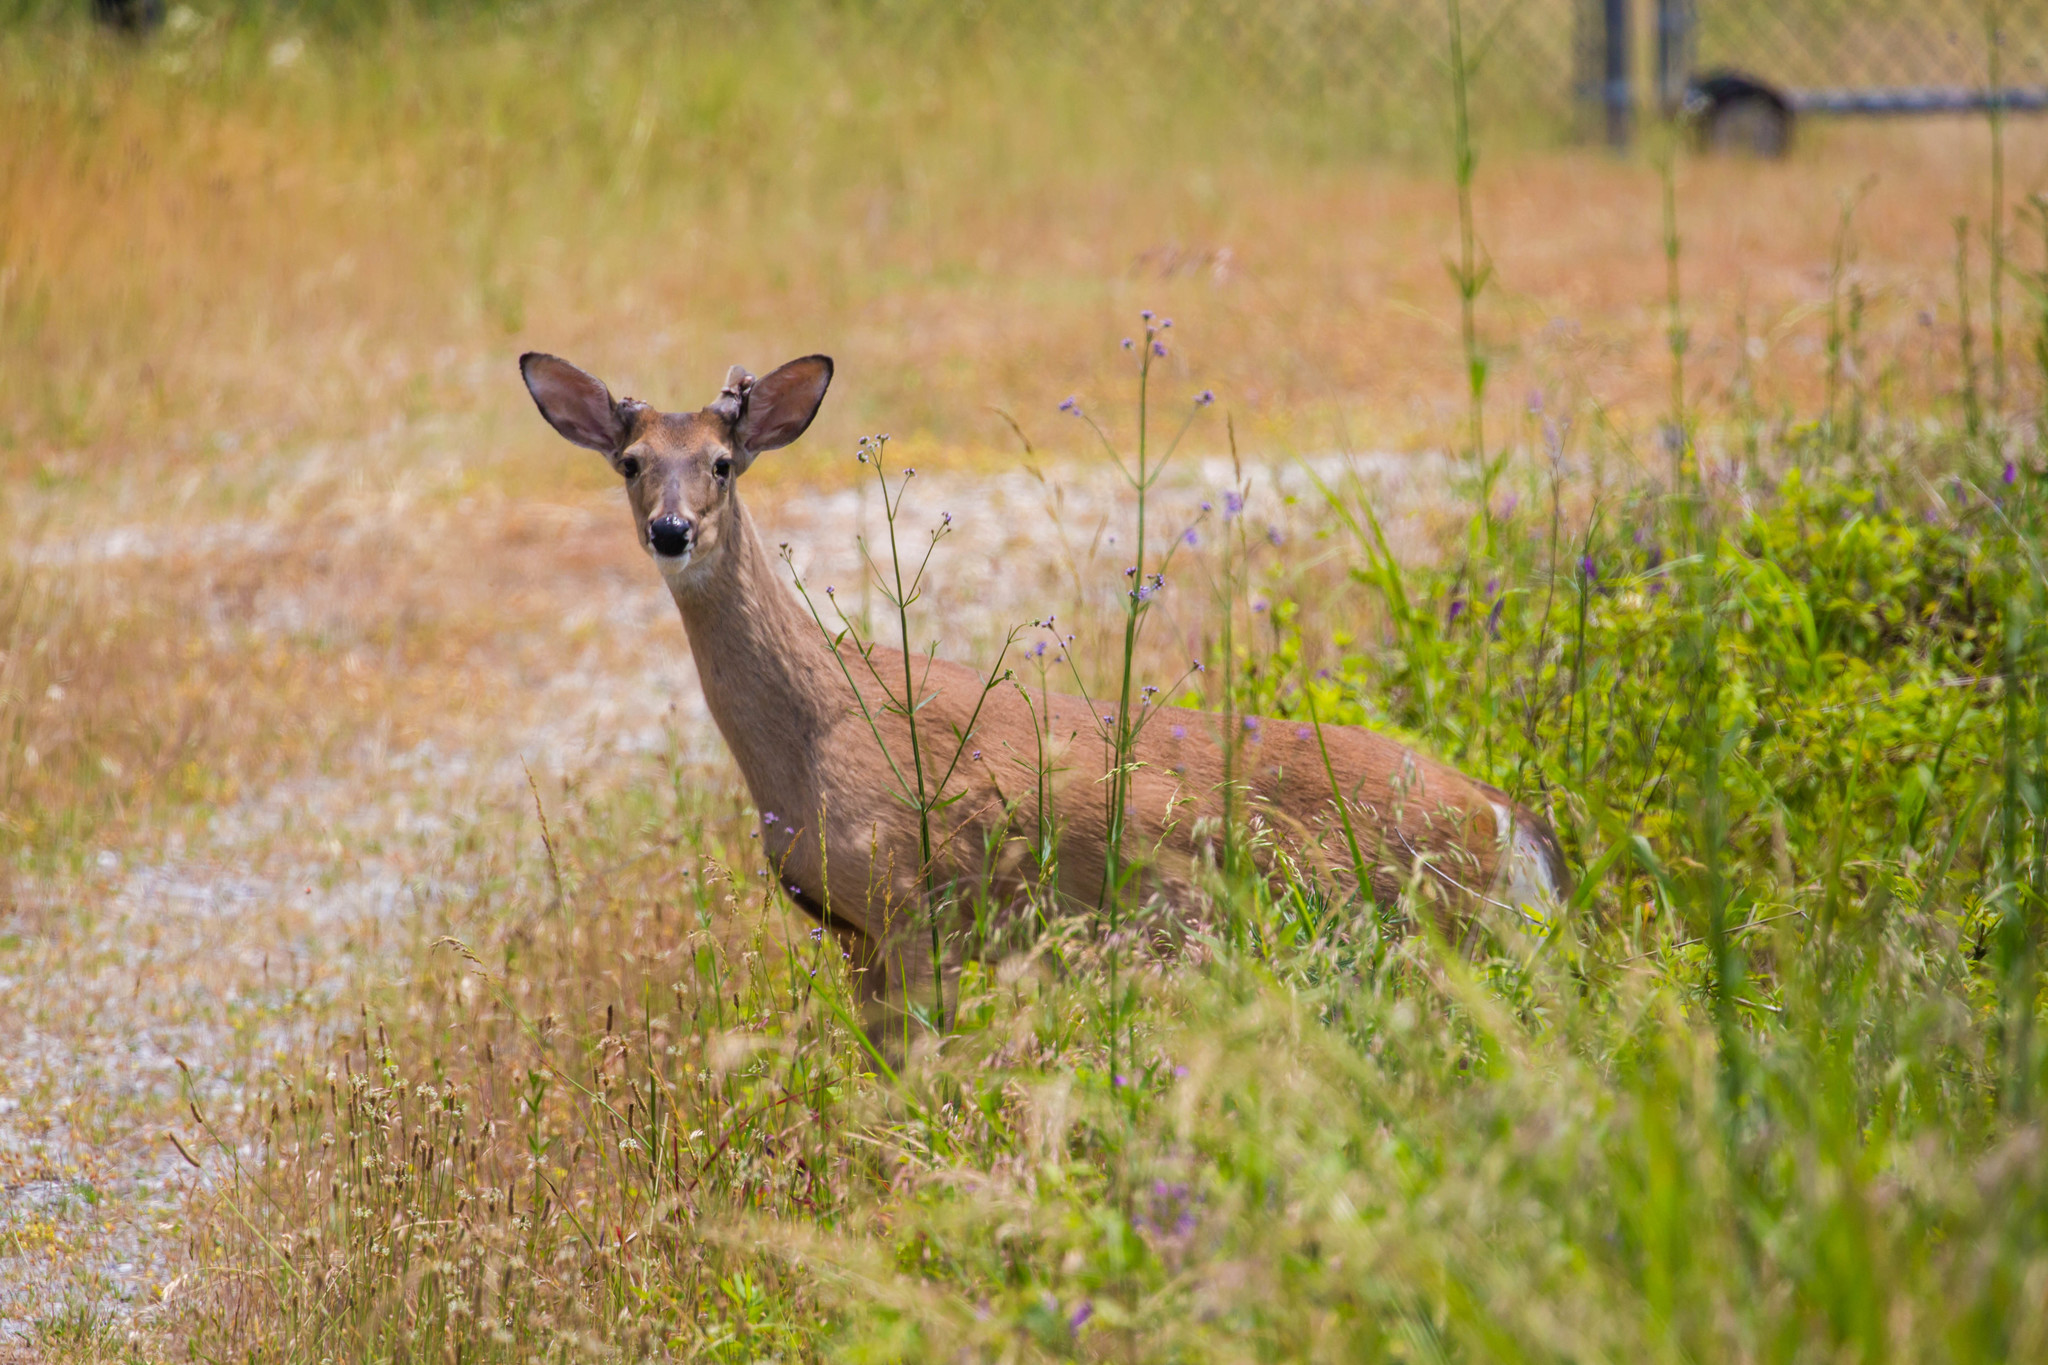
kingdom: Animalia
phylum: Chordata
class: Mammalia
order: Artiodactyla
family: Cervidae
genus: Odocoileus
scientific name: Odocoileus virginianus
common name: White-tailed deer
